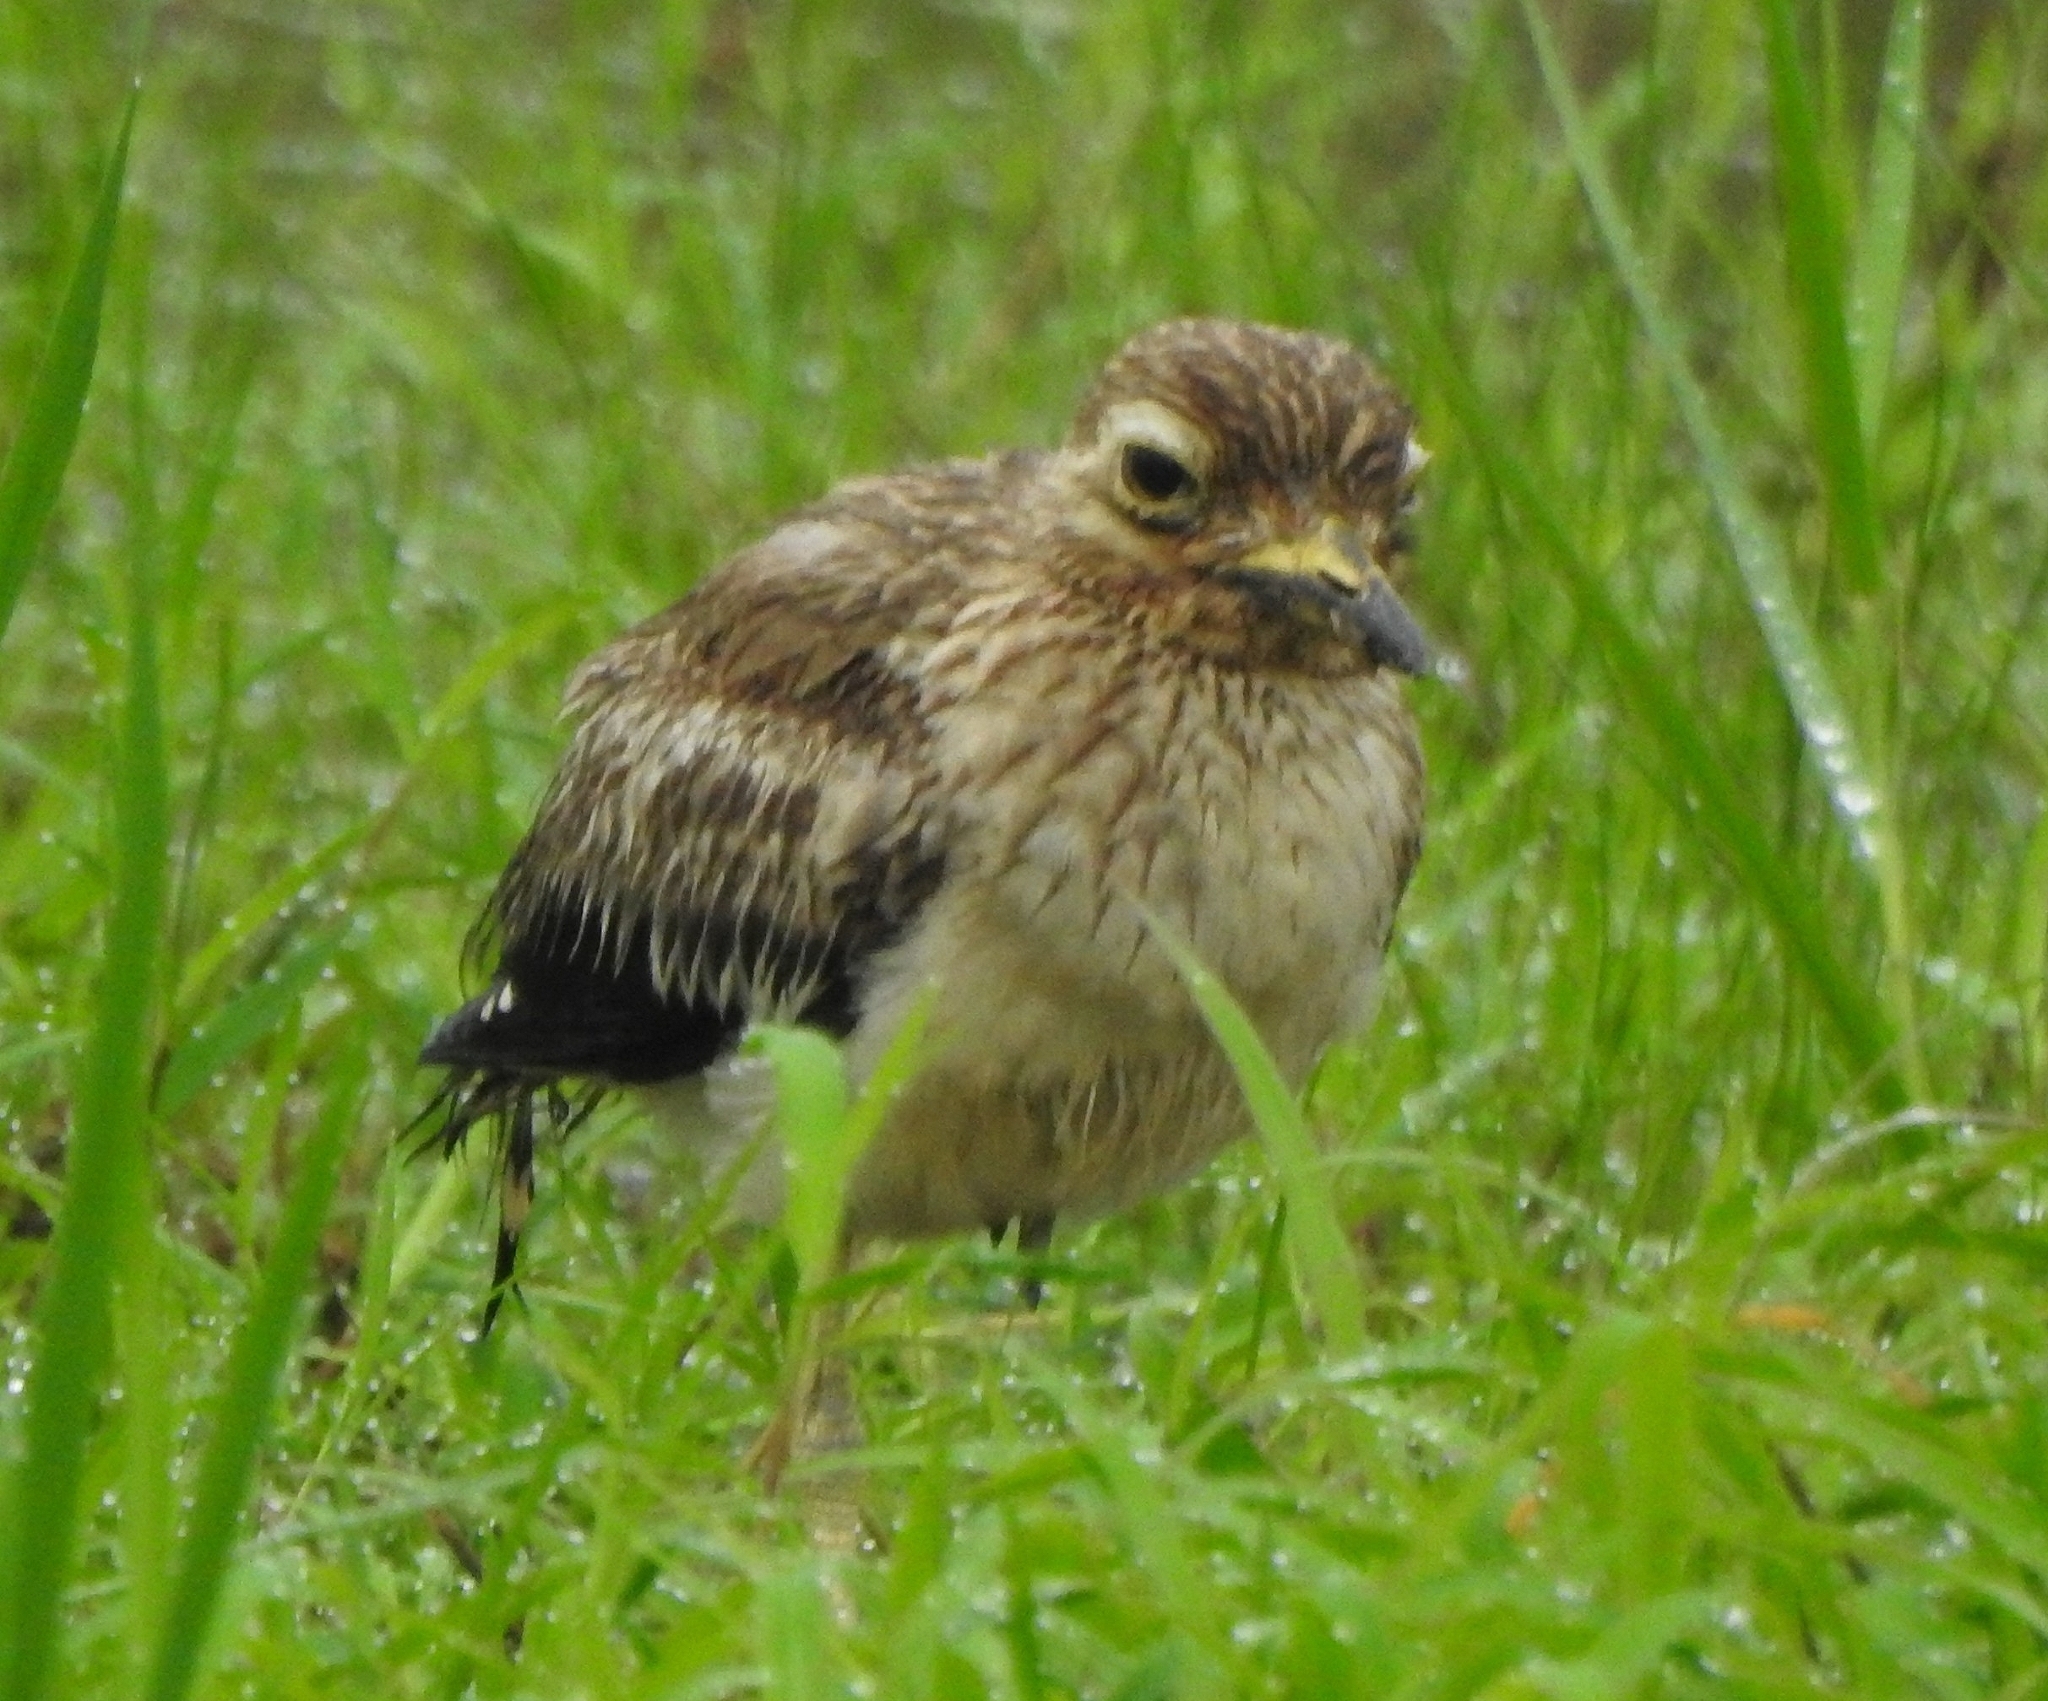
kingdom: Animalia
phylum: Chordata
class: Aves
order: Charadriiformes
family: Burhinidae
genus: Burhinus
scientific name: Burhinus indicus
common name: Indian thick-knee
